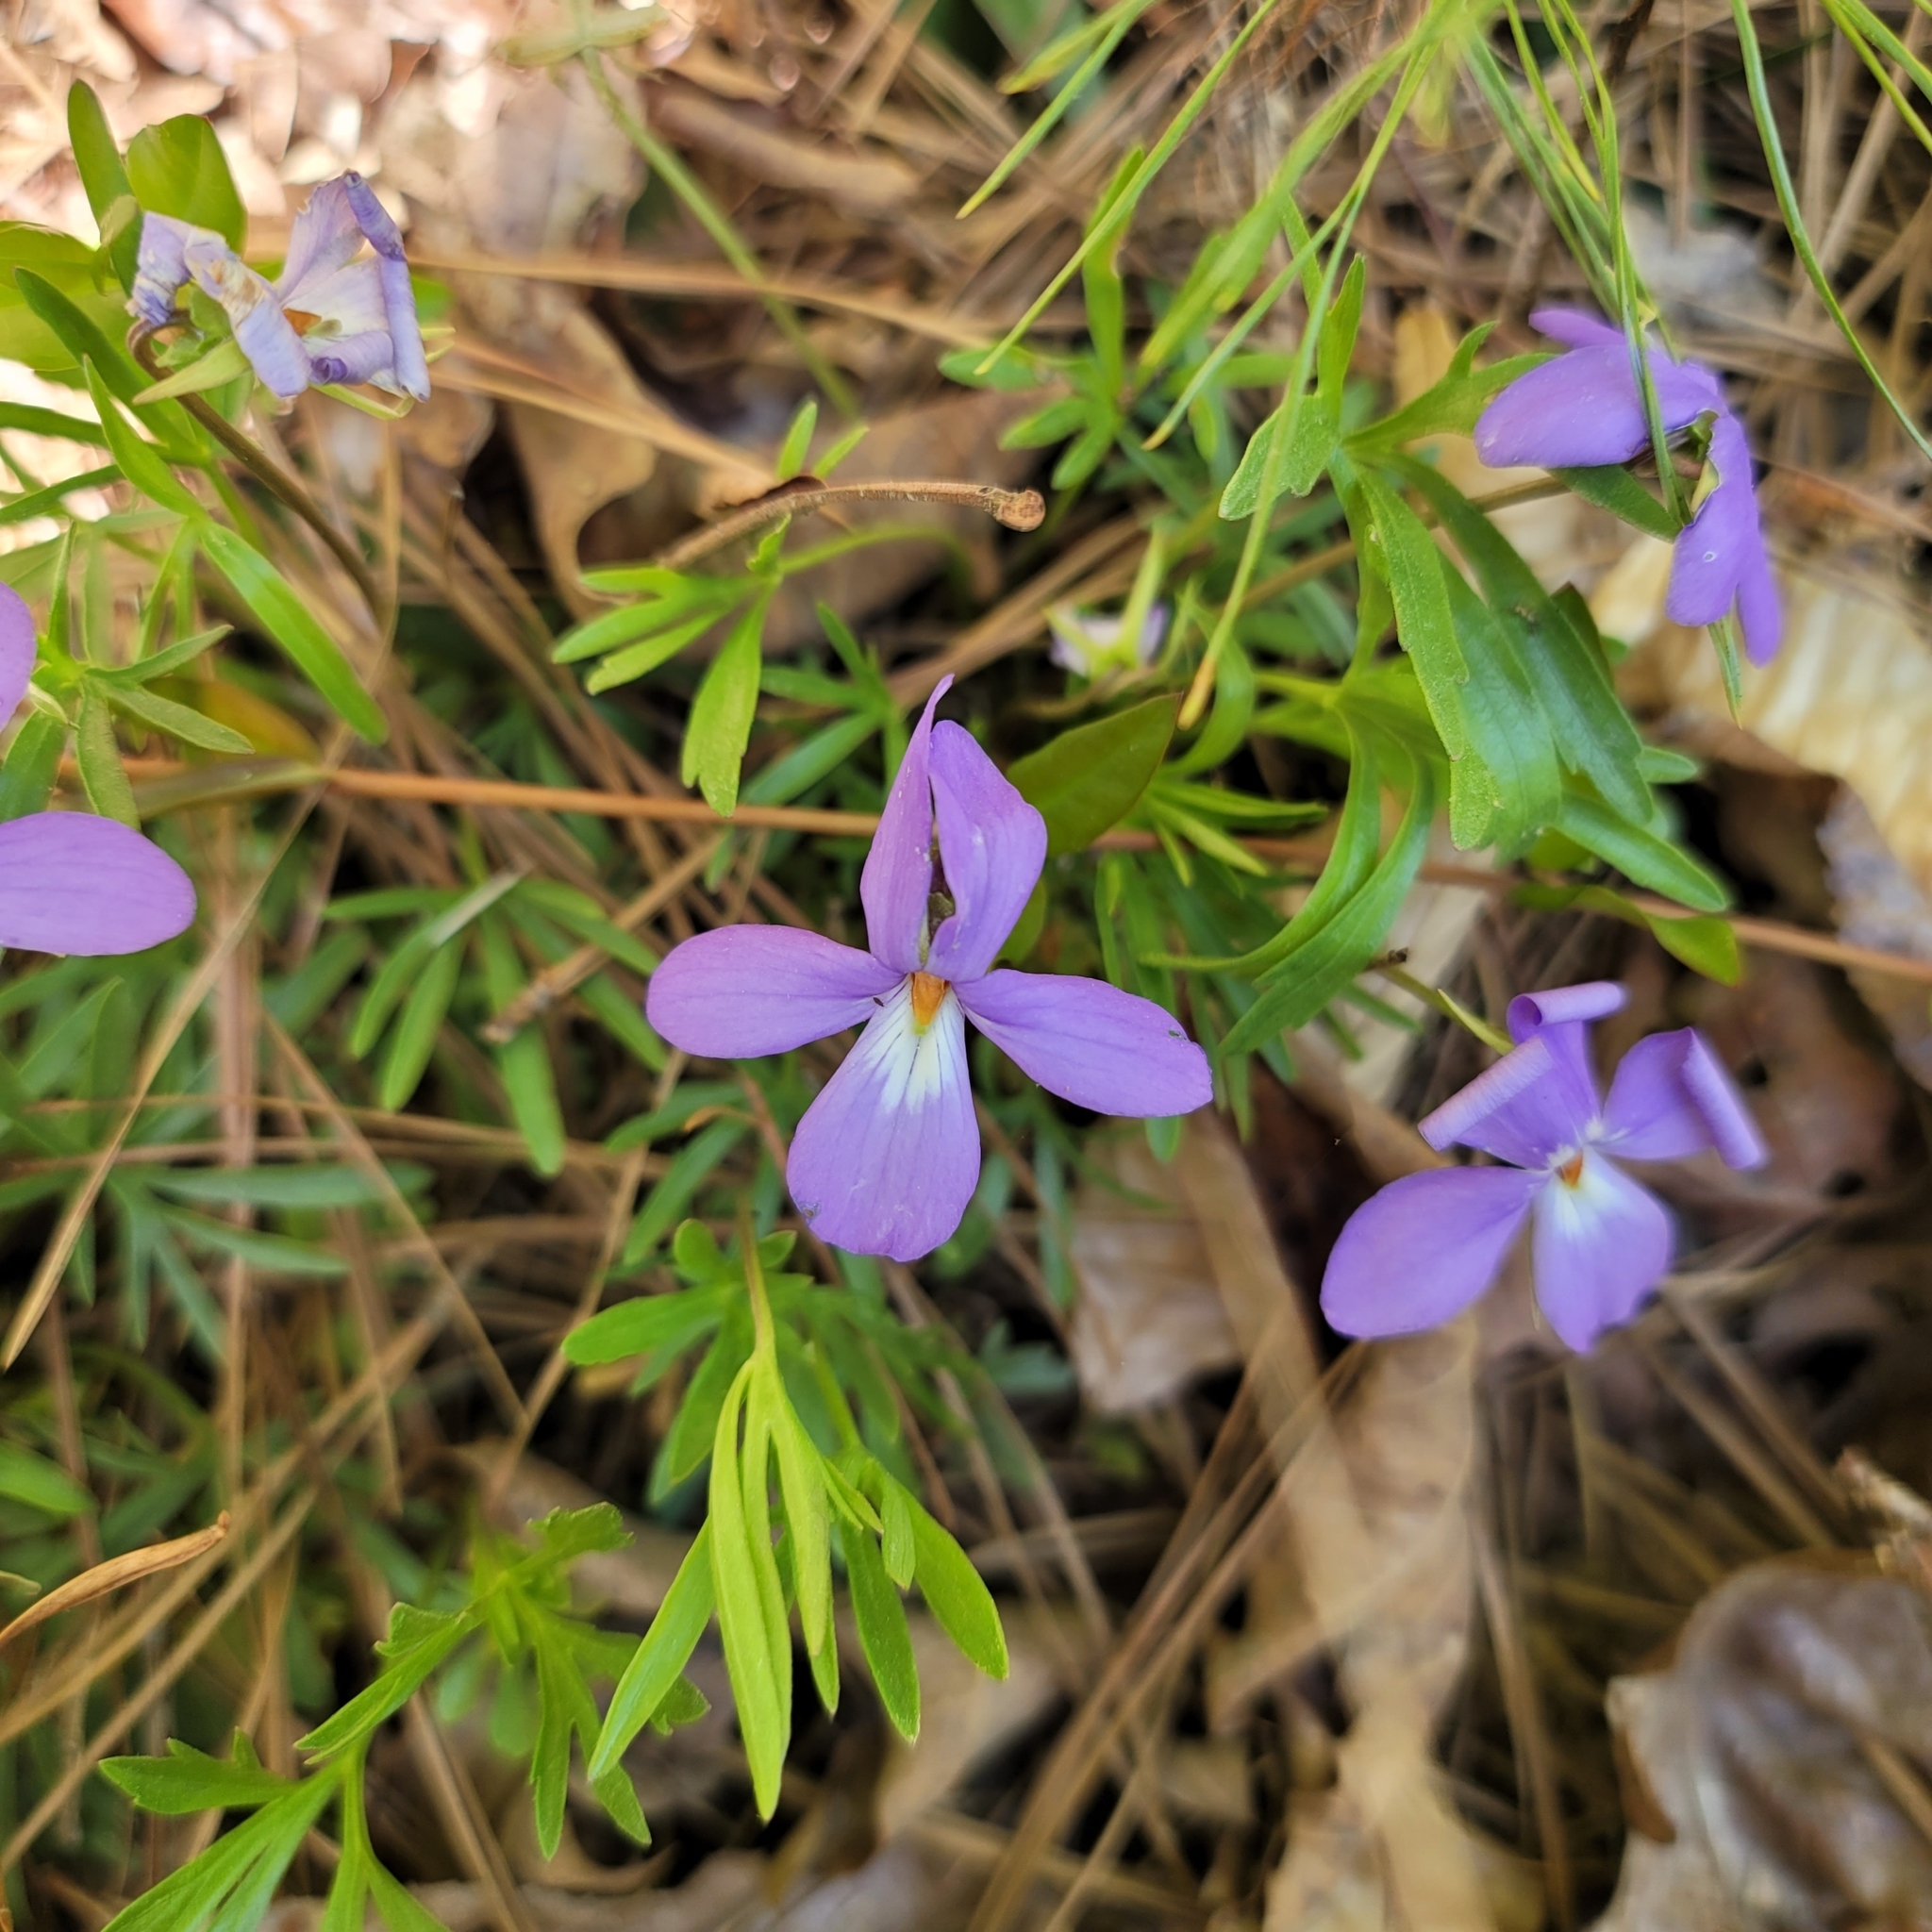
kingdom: Plantae
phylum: Tracheophyta
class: Magnoliopsida
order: Malpighiales
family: Violaceae
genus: Viola
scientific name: Viola pedata
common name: Pansy violet
